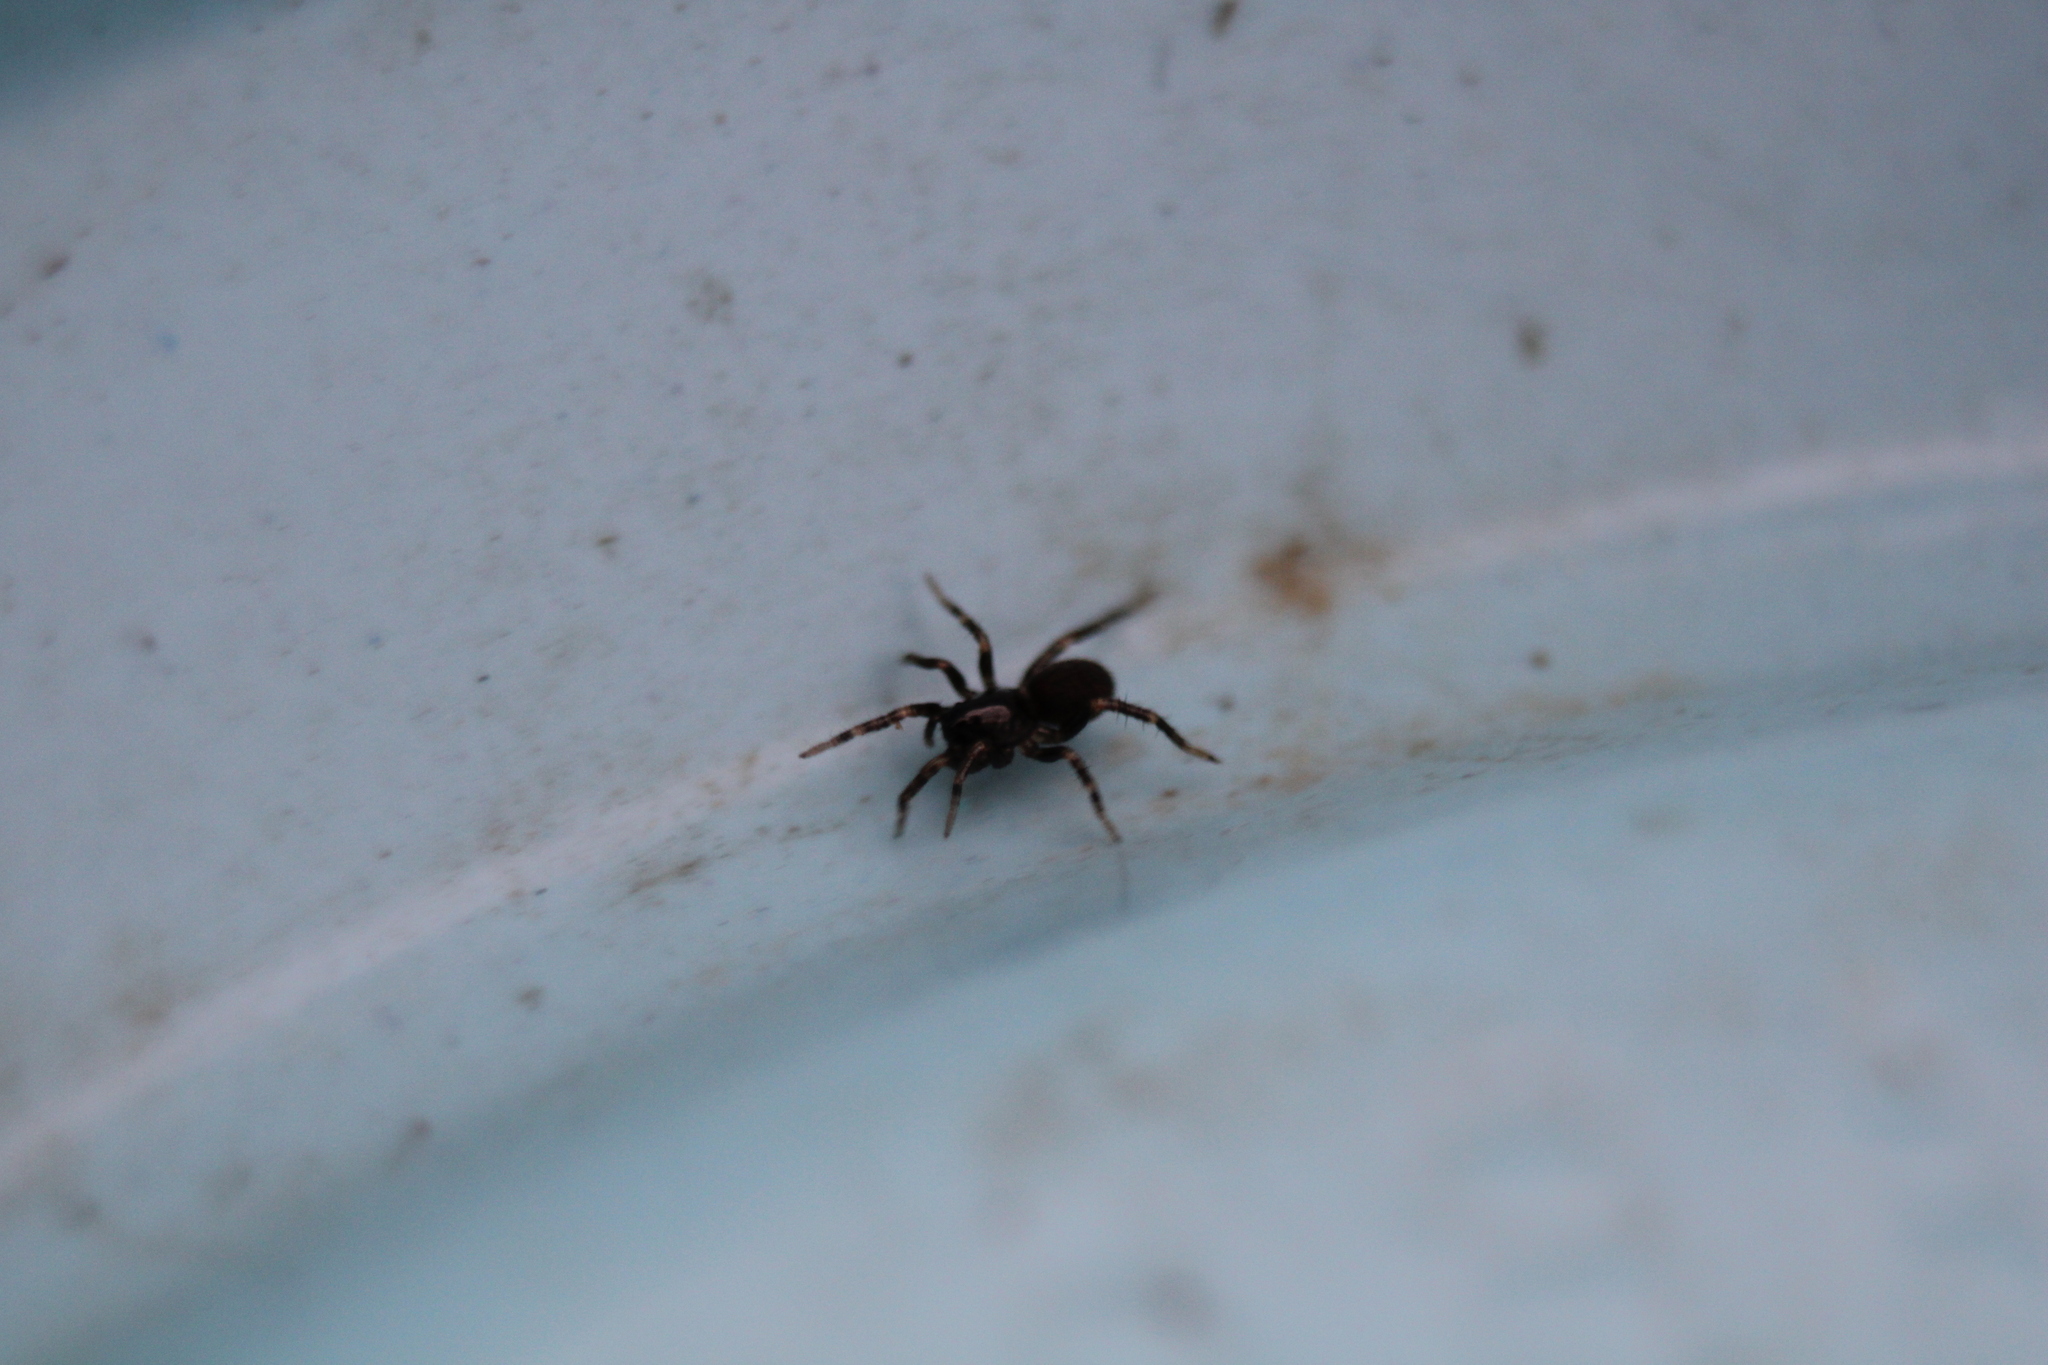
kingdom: Animalia
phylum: Arthropoda
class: Arachnida
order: Araneae
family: Lycosidae
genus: Allocosa
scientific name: Allocosa funerea
